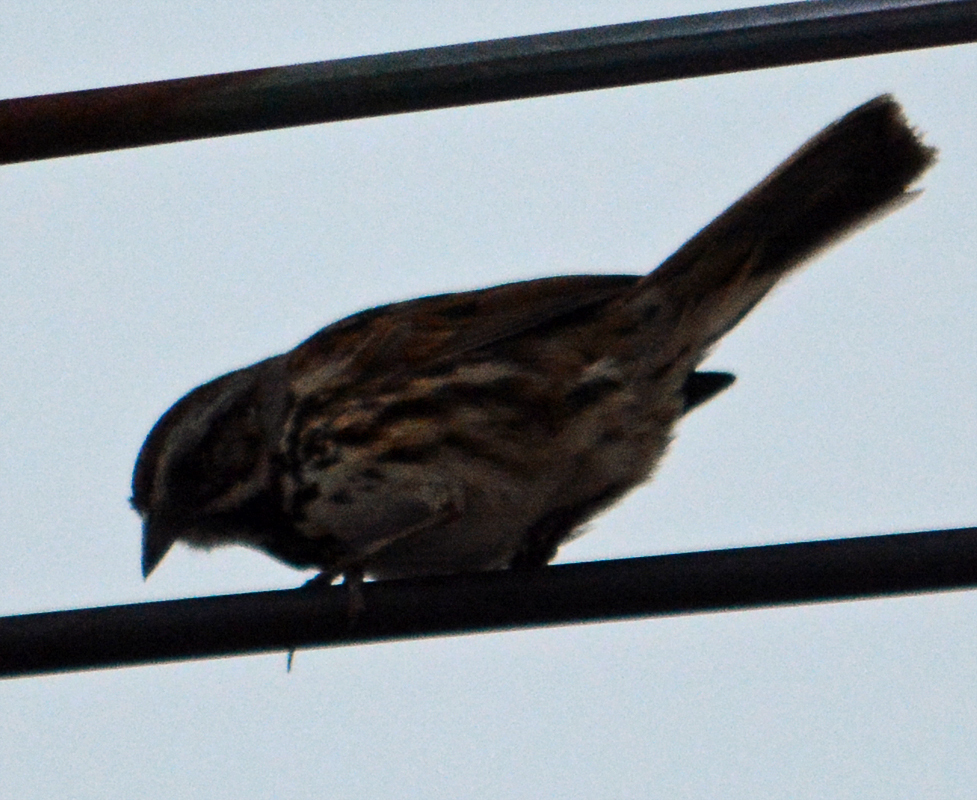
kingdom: Animalia
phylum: Chordata
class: Aves
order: Passeriformes
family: Passerellidae
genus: Melospiza
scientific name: Melospiza melodia
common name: Song sparrow
